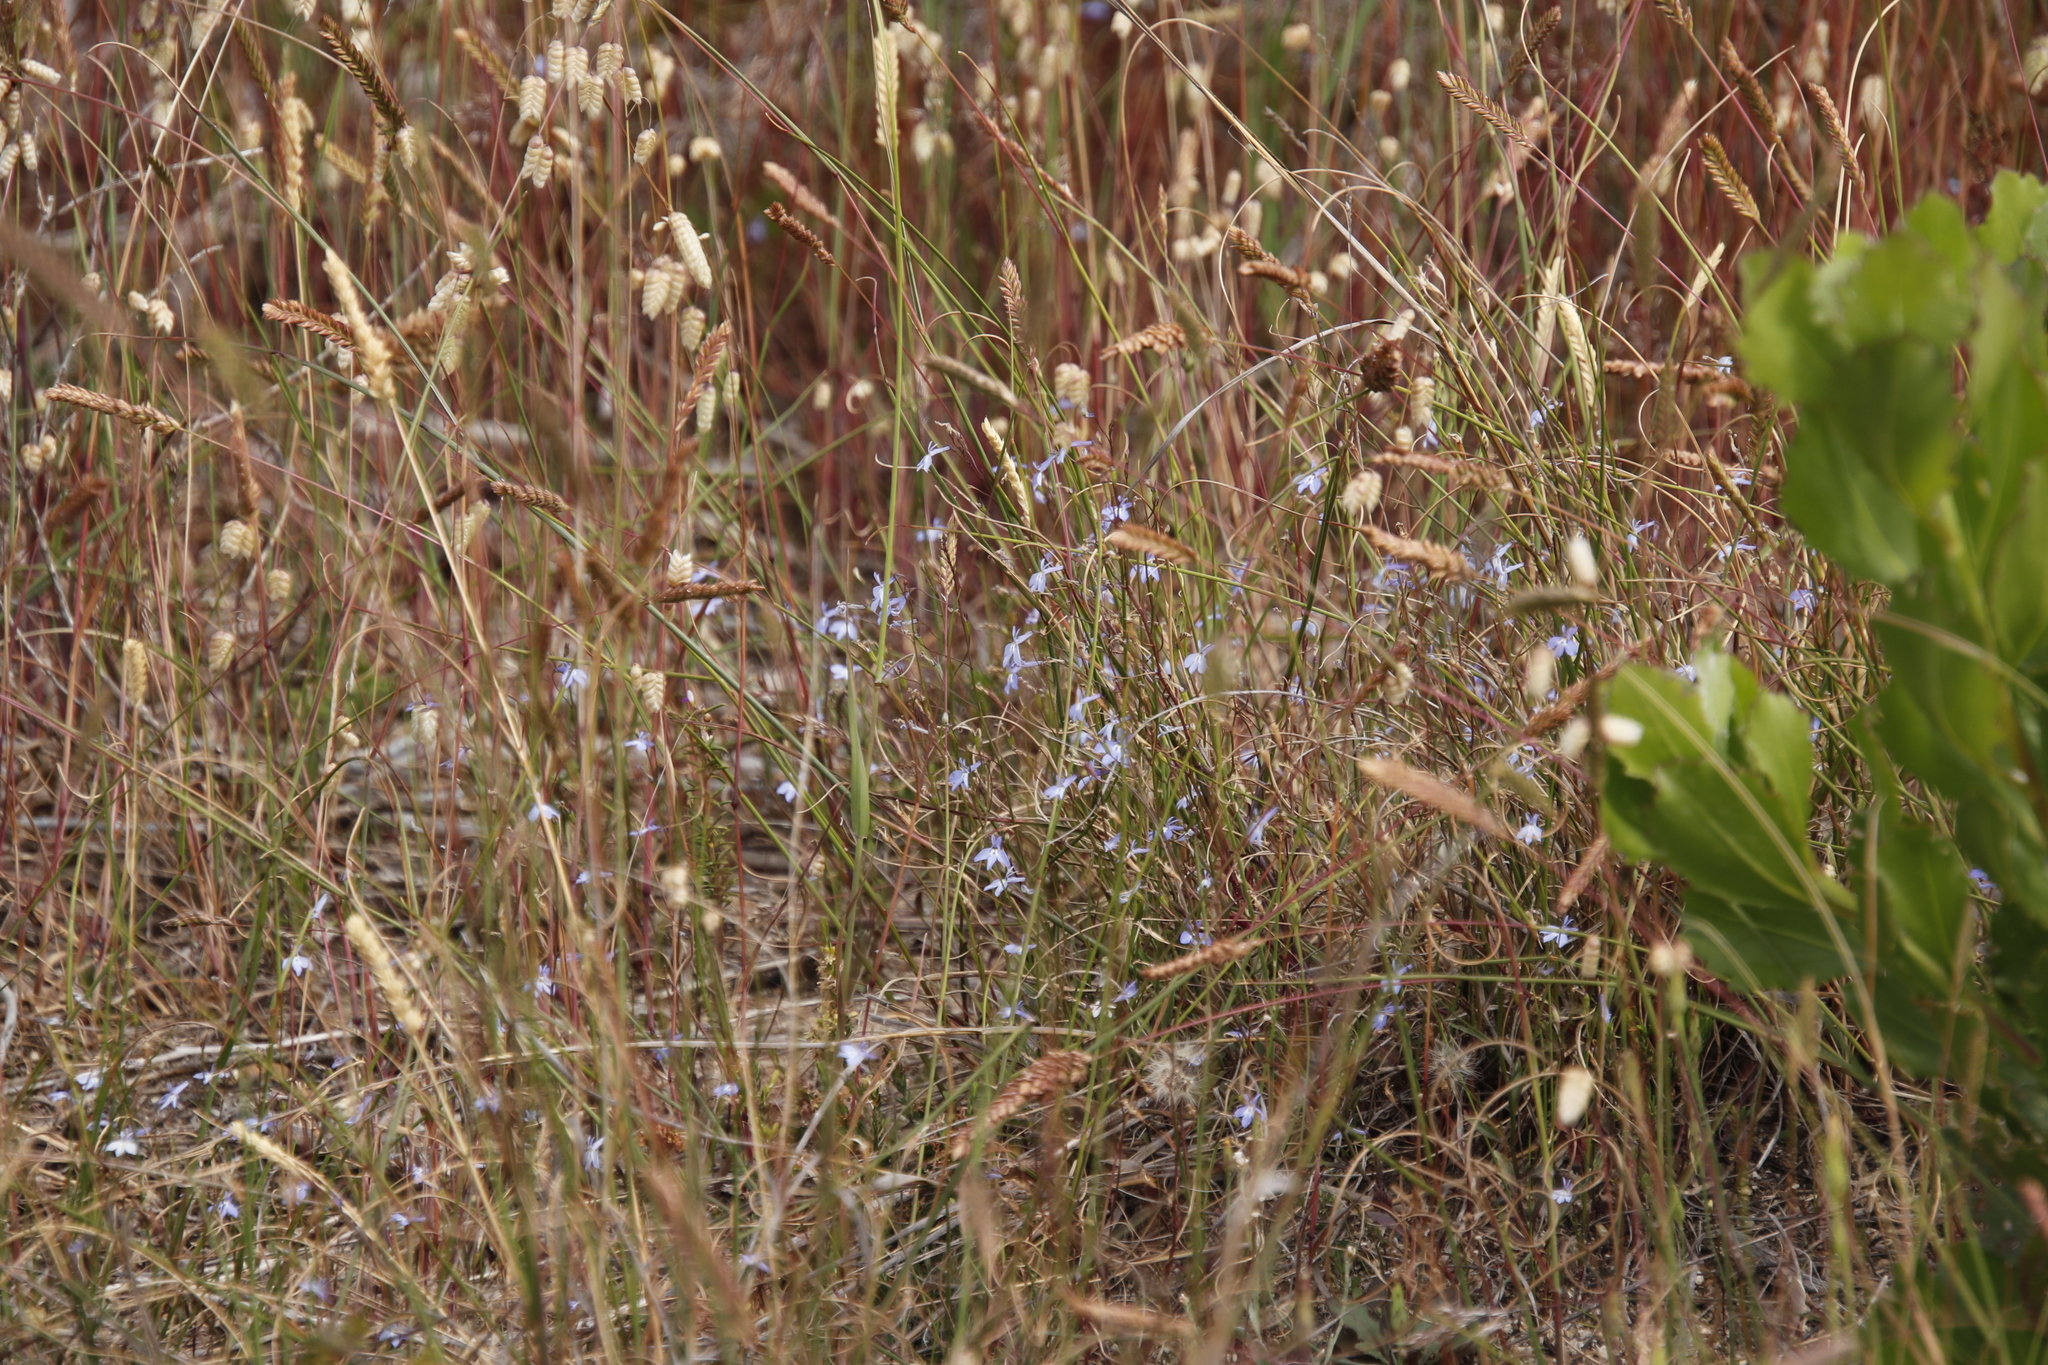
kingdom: Plantae
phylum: Tracheophyta
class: Magnoliopsida
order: Asterales
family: Campanulaceae
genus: Lobelia
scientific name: Lobelia erinus
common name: Edging lobelia
